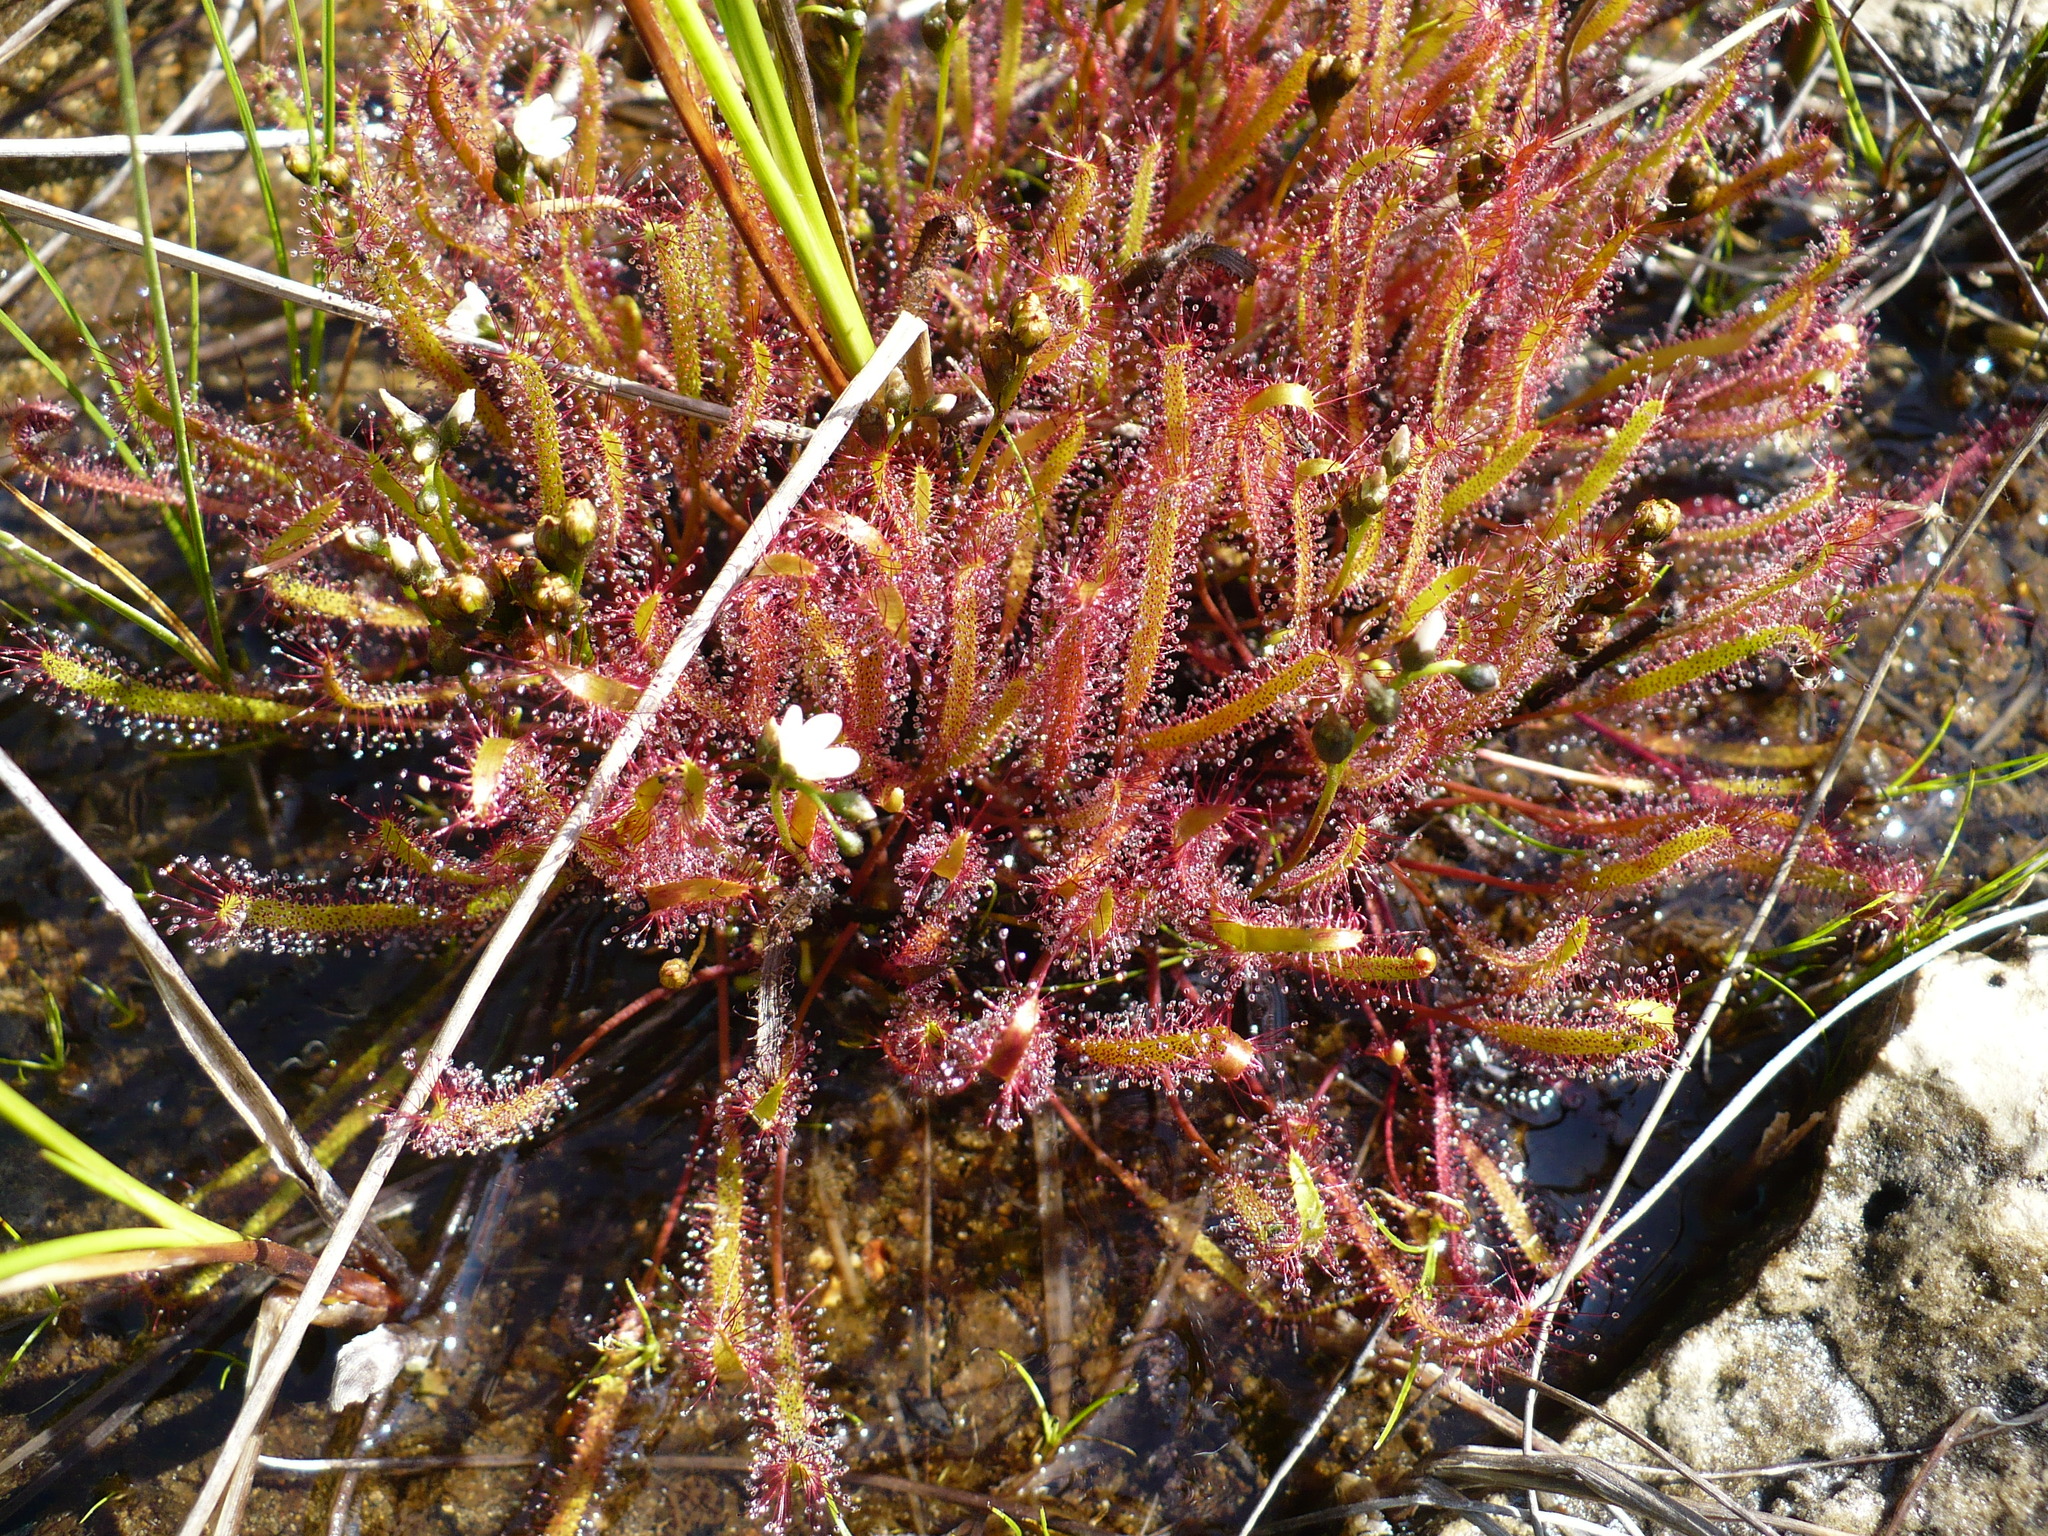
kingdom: Plantae
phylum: Tracheophyta
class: Magnoliopsida
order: Caryophyllales
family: Droseraceae
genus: Drosera
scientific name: Drosera linearis
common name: Linear-leaved sundew
